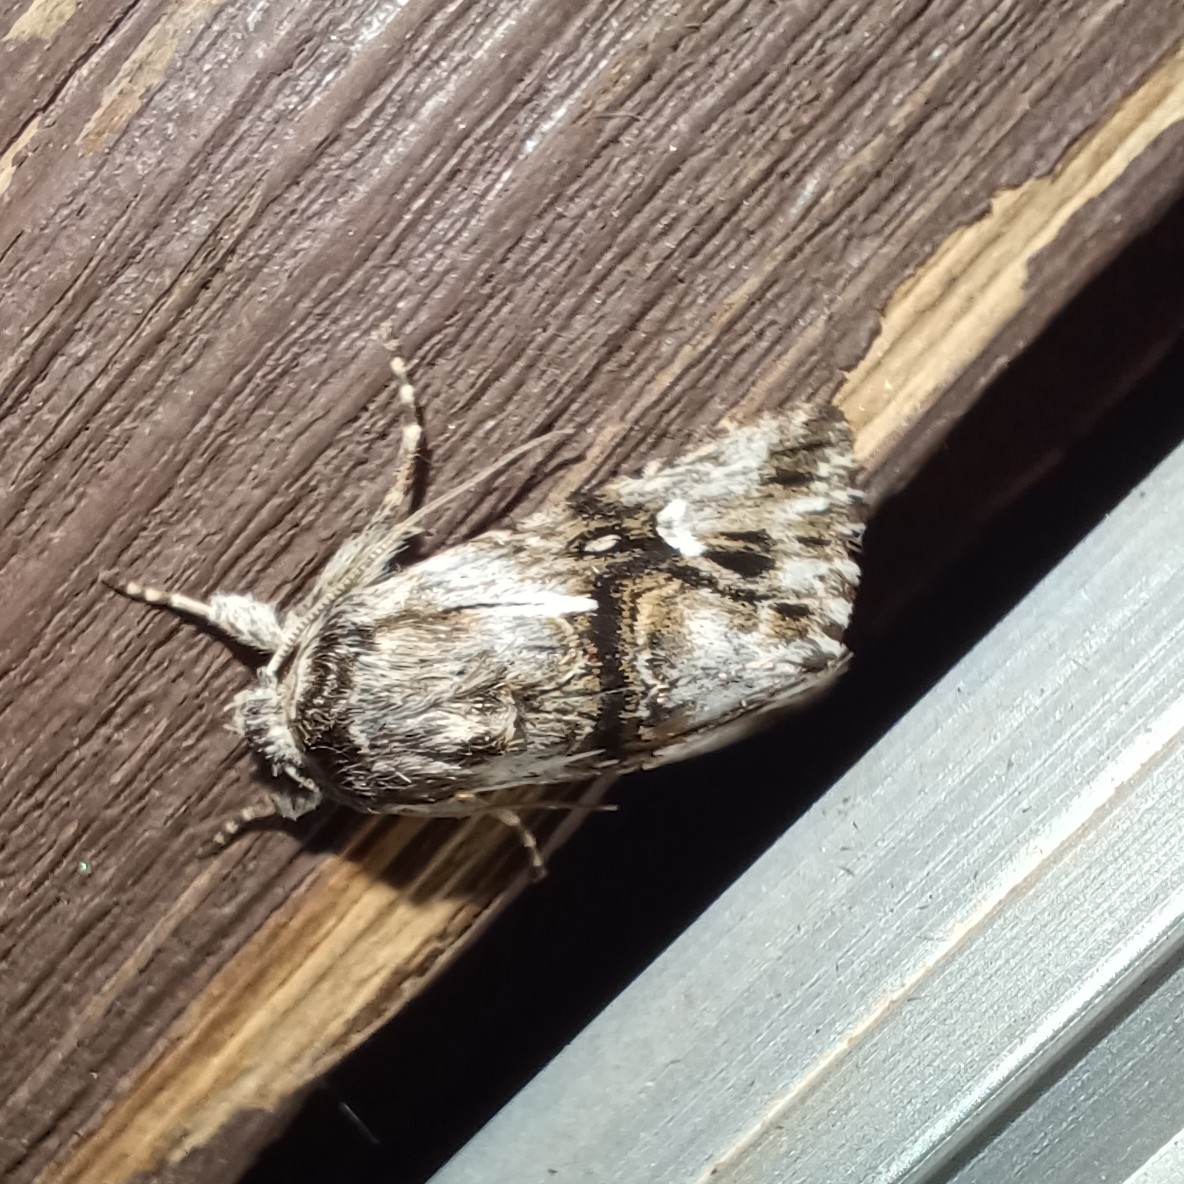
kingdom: Animalia
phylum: Arthropoda
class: Insecta
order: Lepidoptera
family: Noctuidae
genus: Calophasia
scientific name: Calophasia lunula
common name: Toadflax brocade
